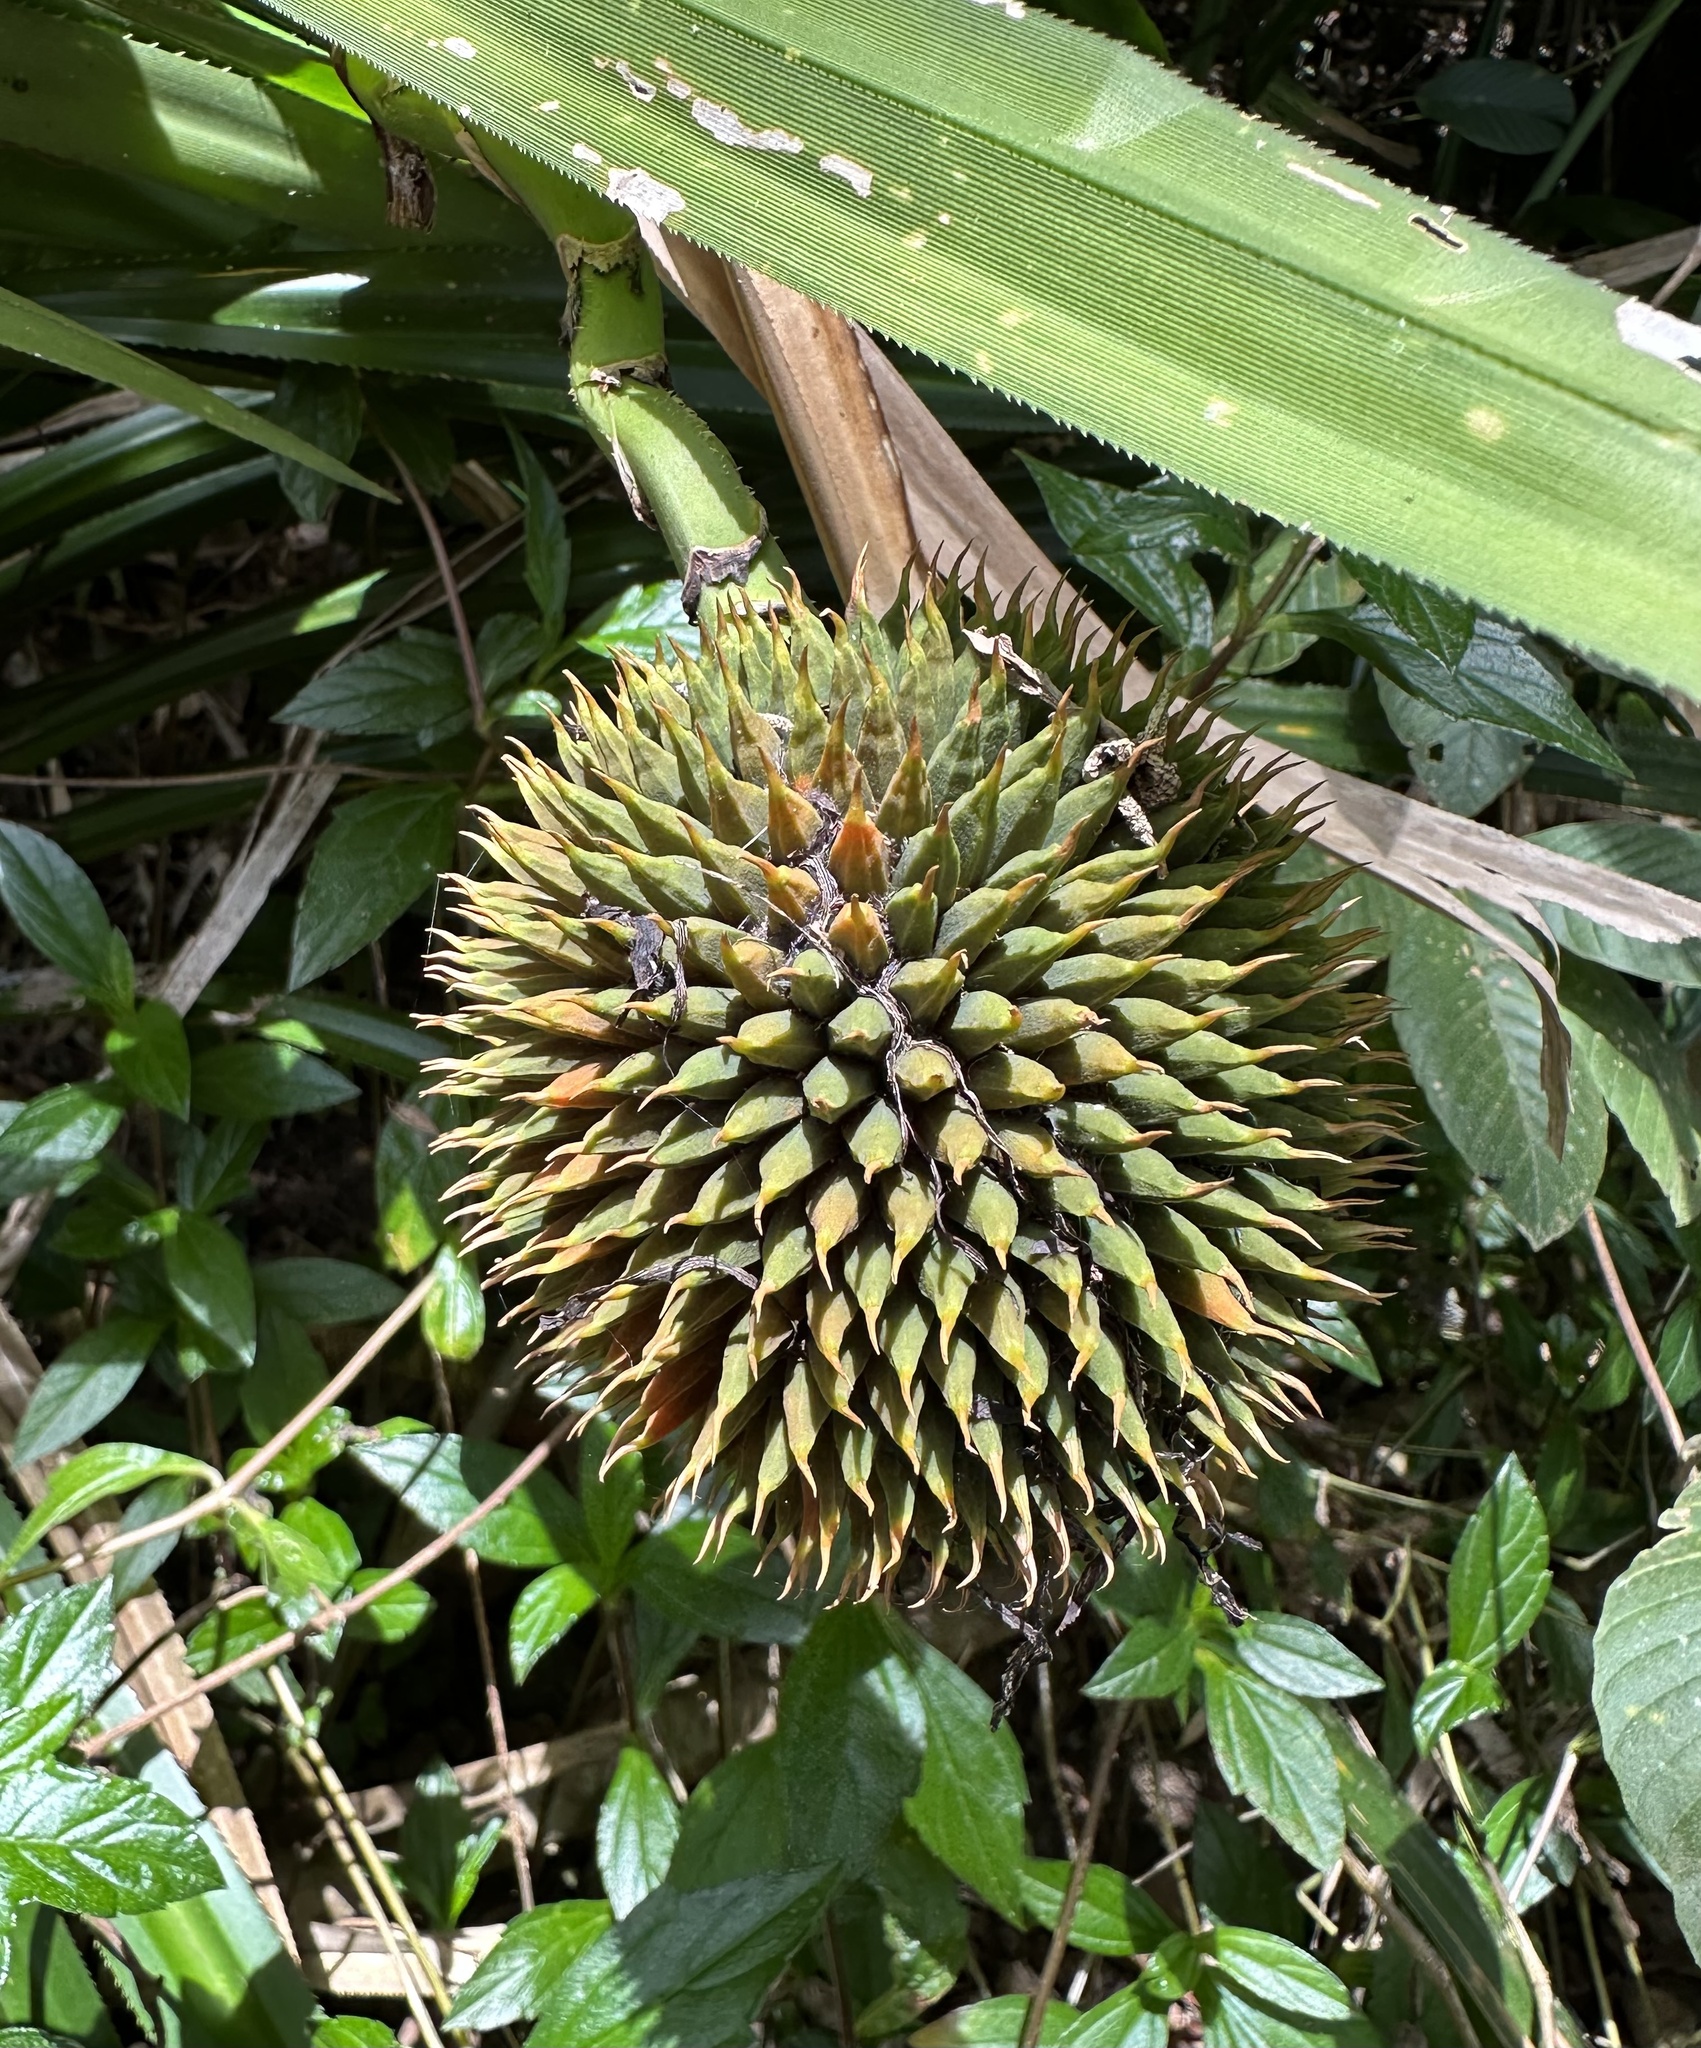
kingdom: Plantae
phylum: Tracheophyta
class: Liliopsida
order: Pandanales
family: Pandanaceae
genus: Benstonea
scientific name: Benstonea monticola
